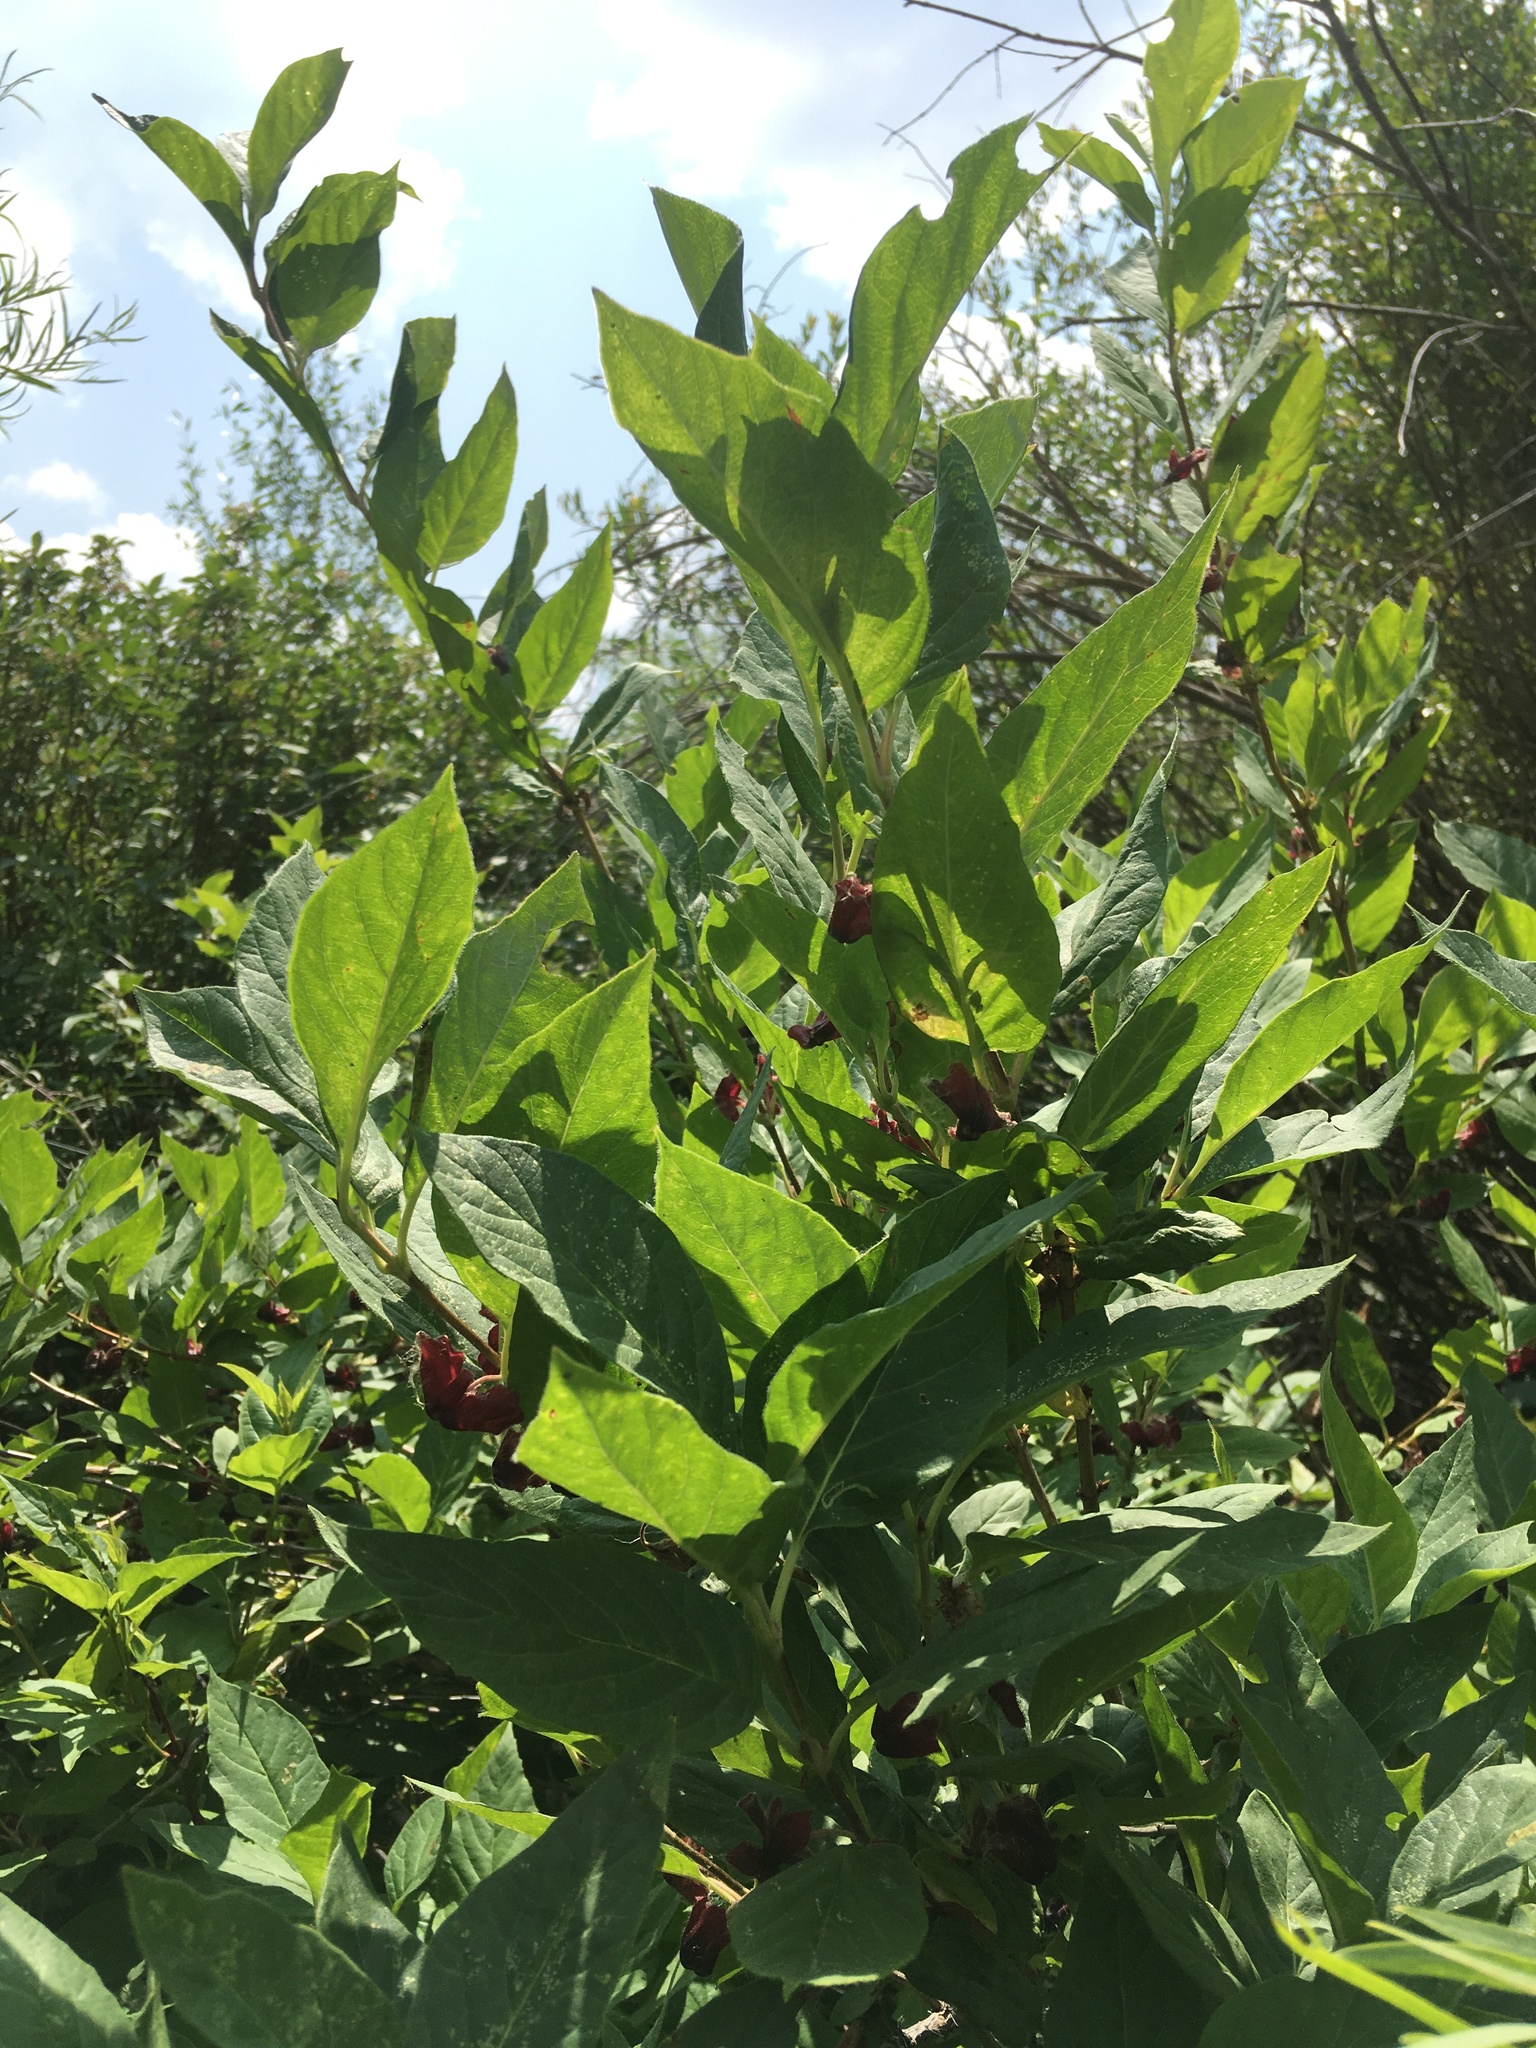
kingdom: Plantae
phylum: Tracheophyta
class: Magnoliopsida
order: Dipsacales
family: Caprifoliaceae
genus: Lonicera
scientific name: Lonicera involucrata
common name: Californian honeysuckle
